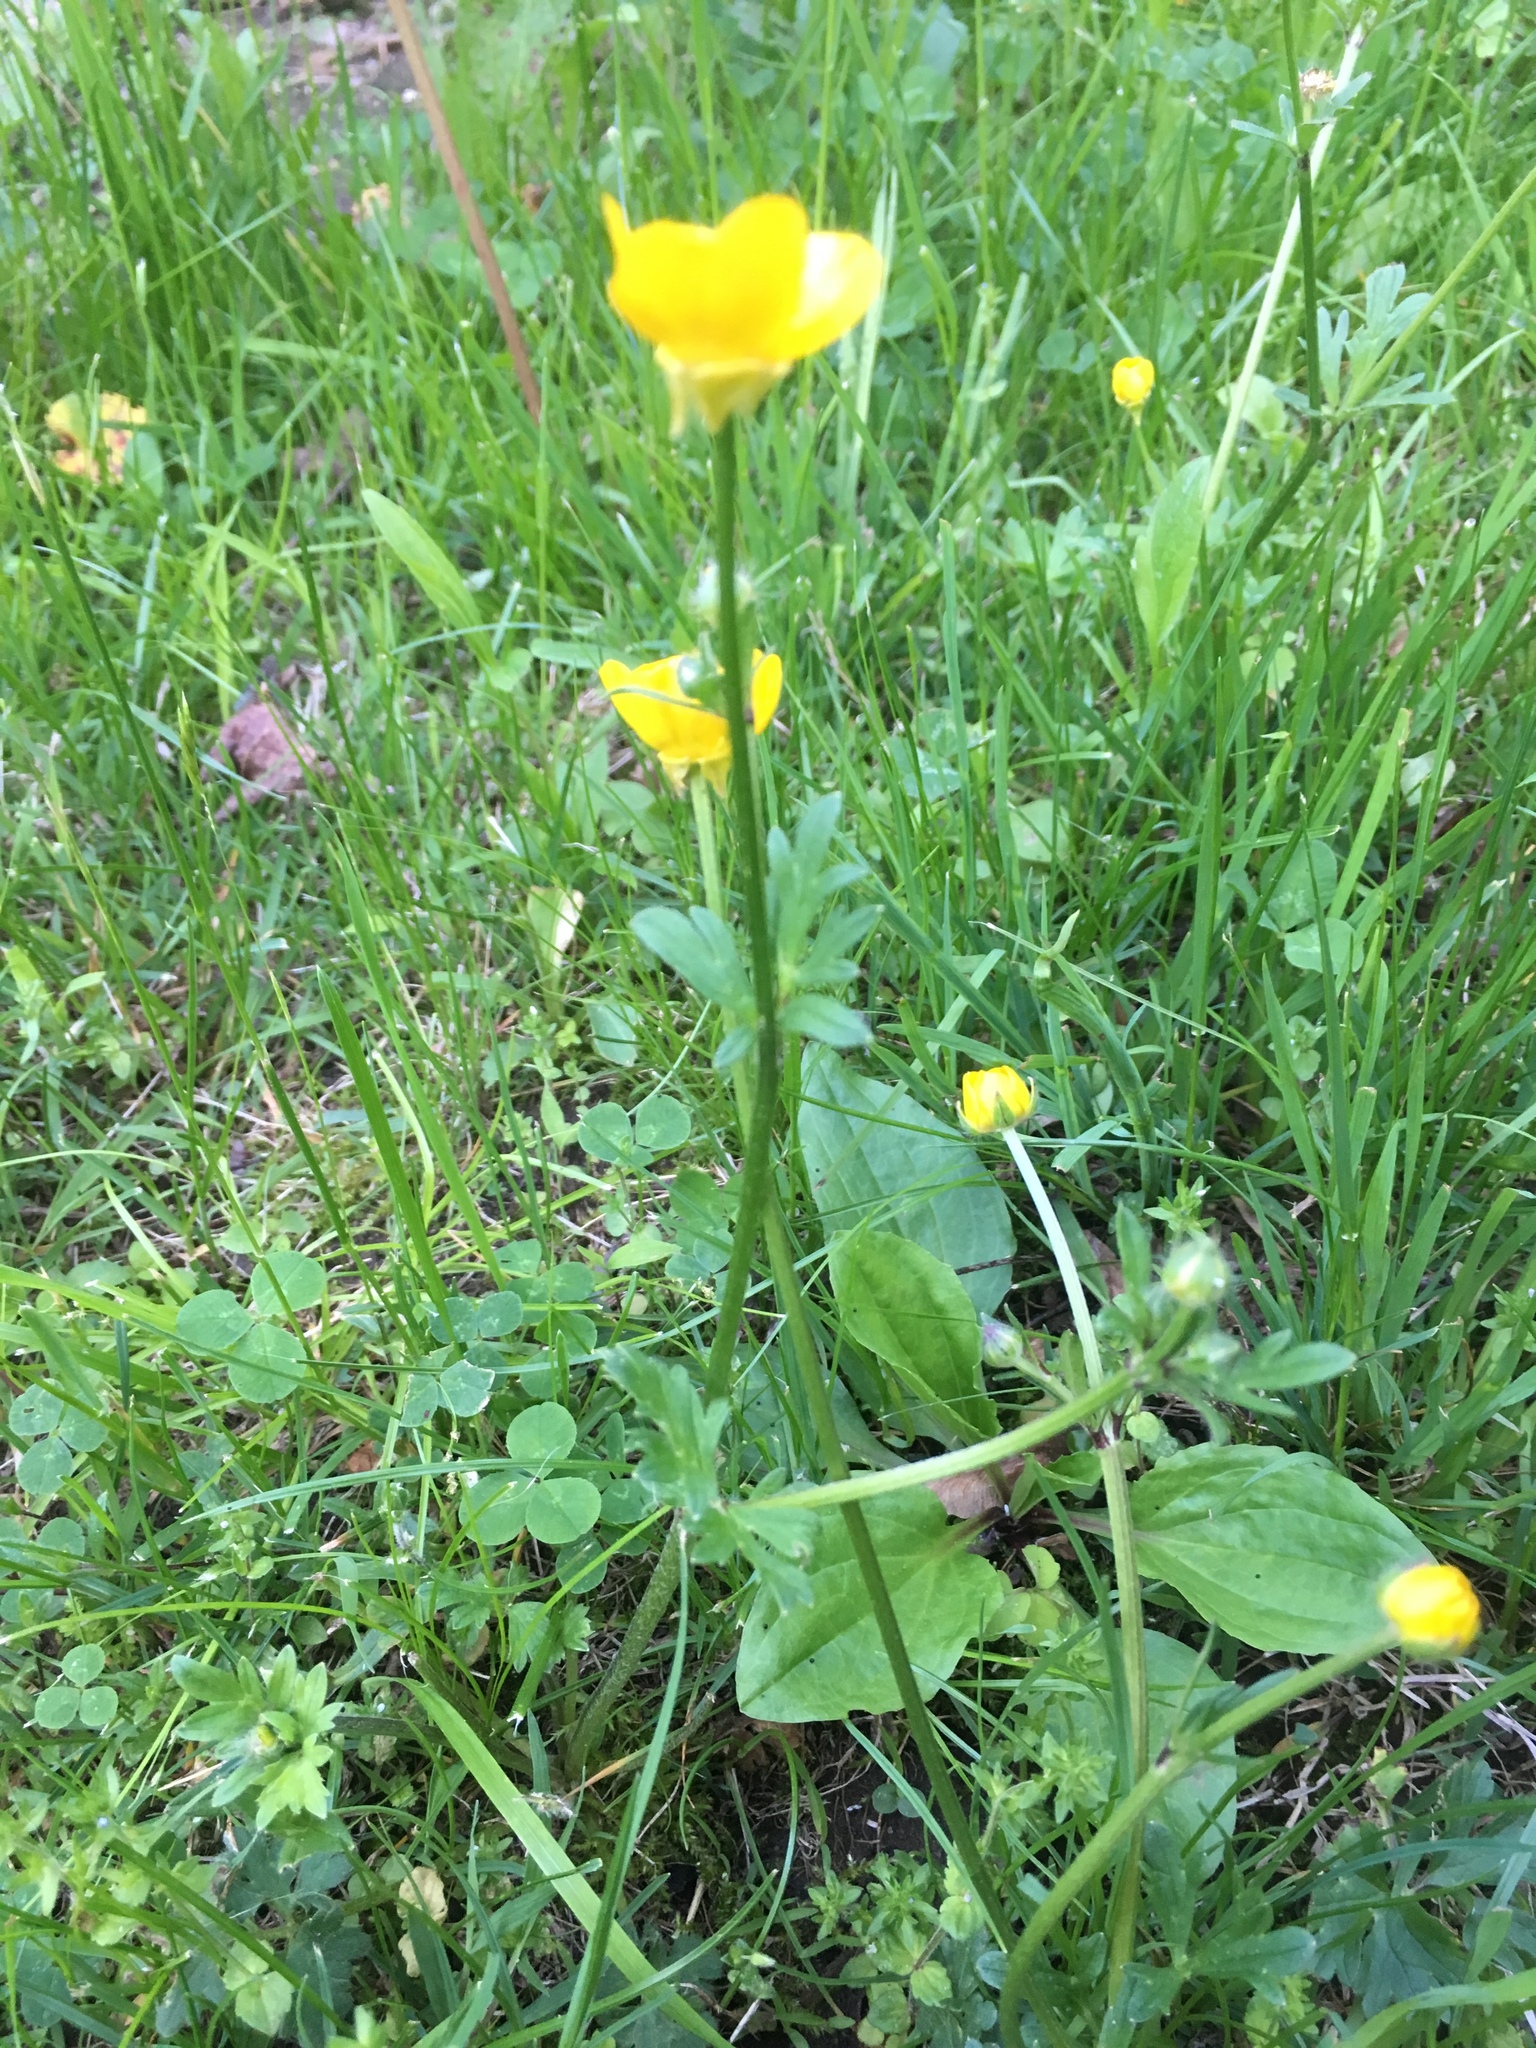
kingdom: Plantae
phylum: Tracheophyta
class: Magnoliopsida
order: Ranunculales
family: Ranunculaceae
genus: Ranunculus
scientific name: Ranunculus bulbosus
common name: Bulbous buttercup
